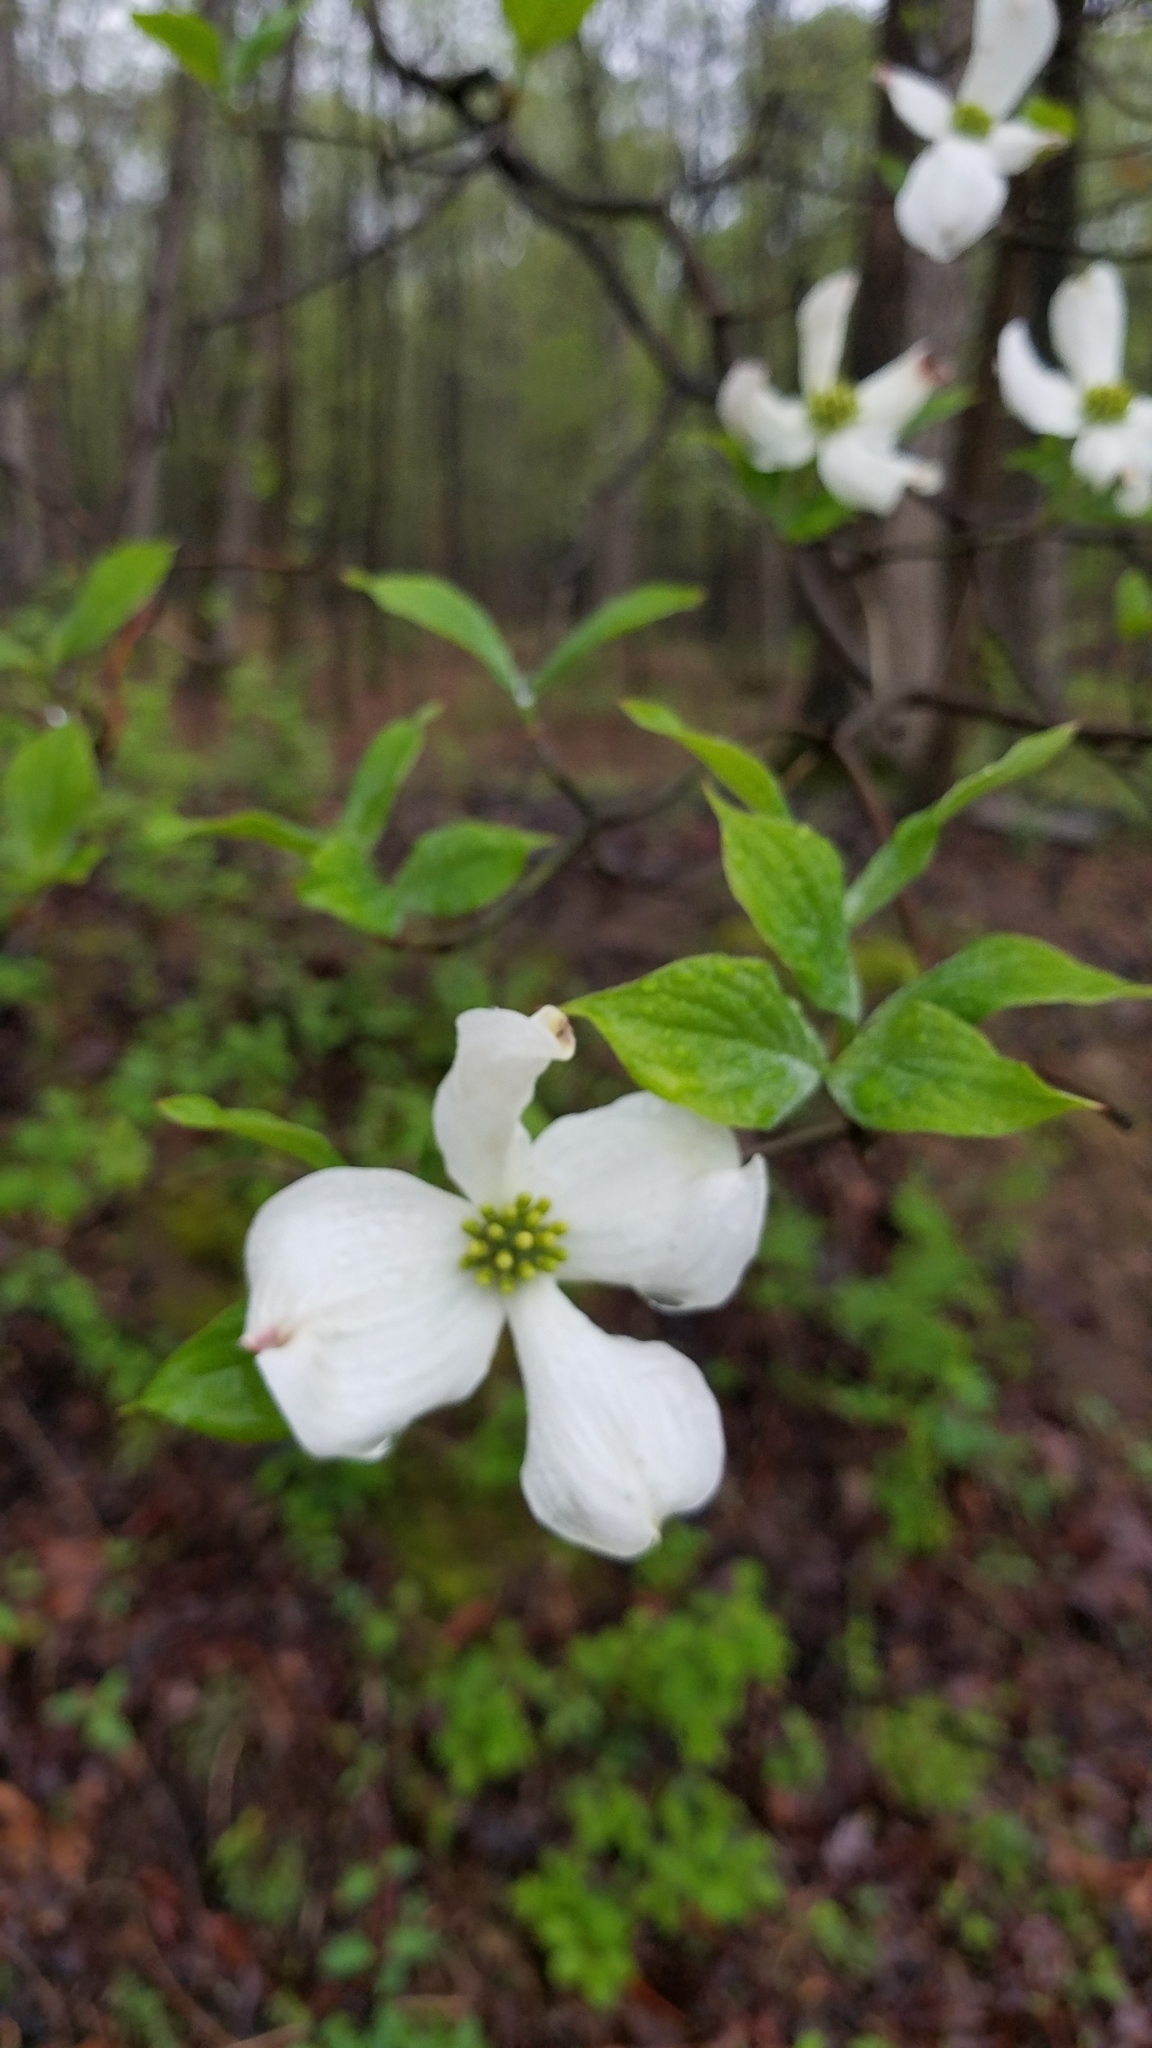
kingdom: Plantae
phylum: Tracheophyta
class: Magnoliopsida
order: Cornales
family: Cornaceae
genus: Cornus
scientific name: Cornus florida
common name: Flowering dogwood
